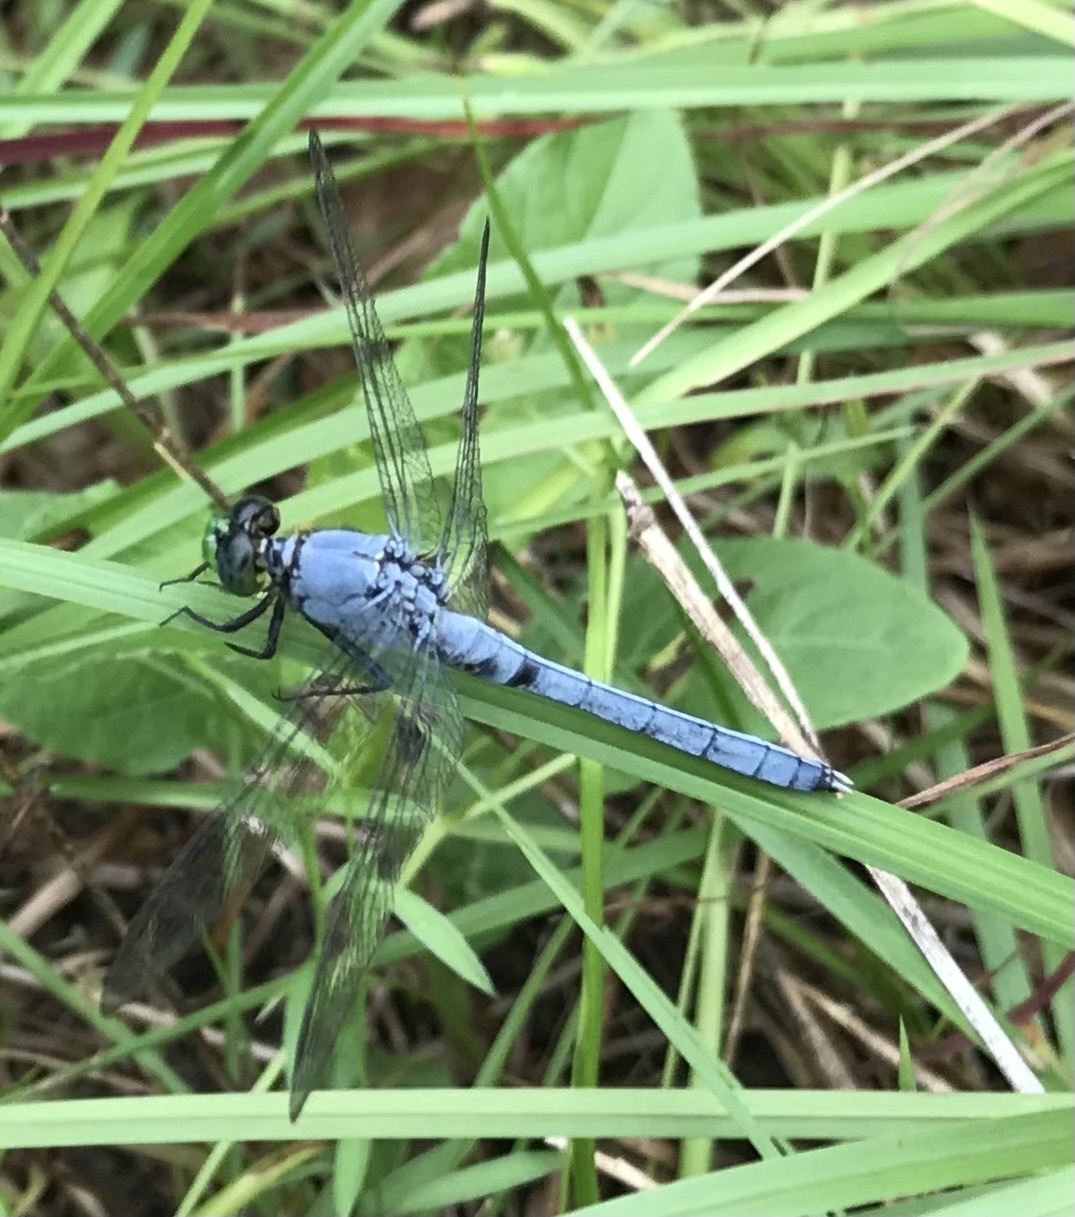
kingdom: Animalia
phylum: Arthropoda
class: Insecta
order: Odonata
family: Libellulidae
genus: Erythemis
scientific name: Erythemis simplicicollis
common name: Eastern pondhawk
